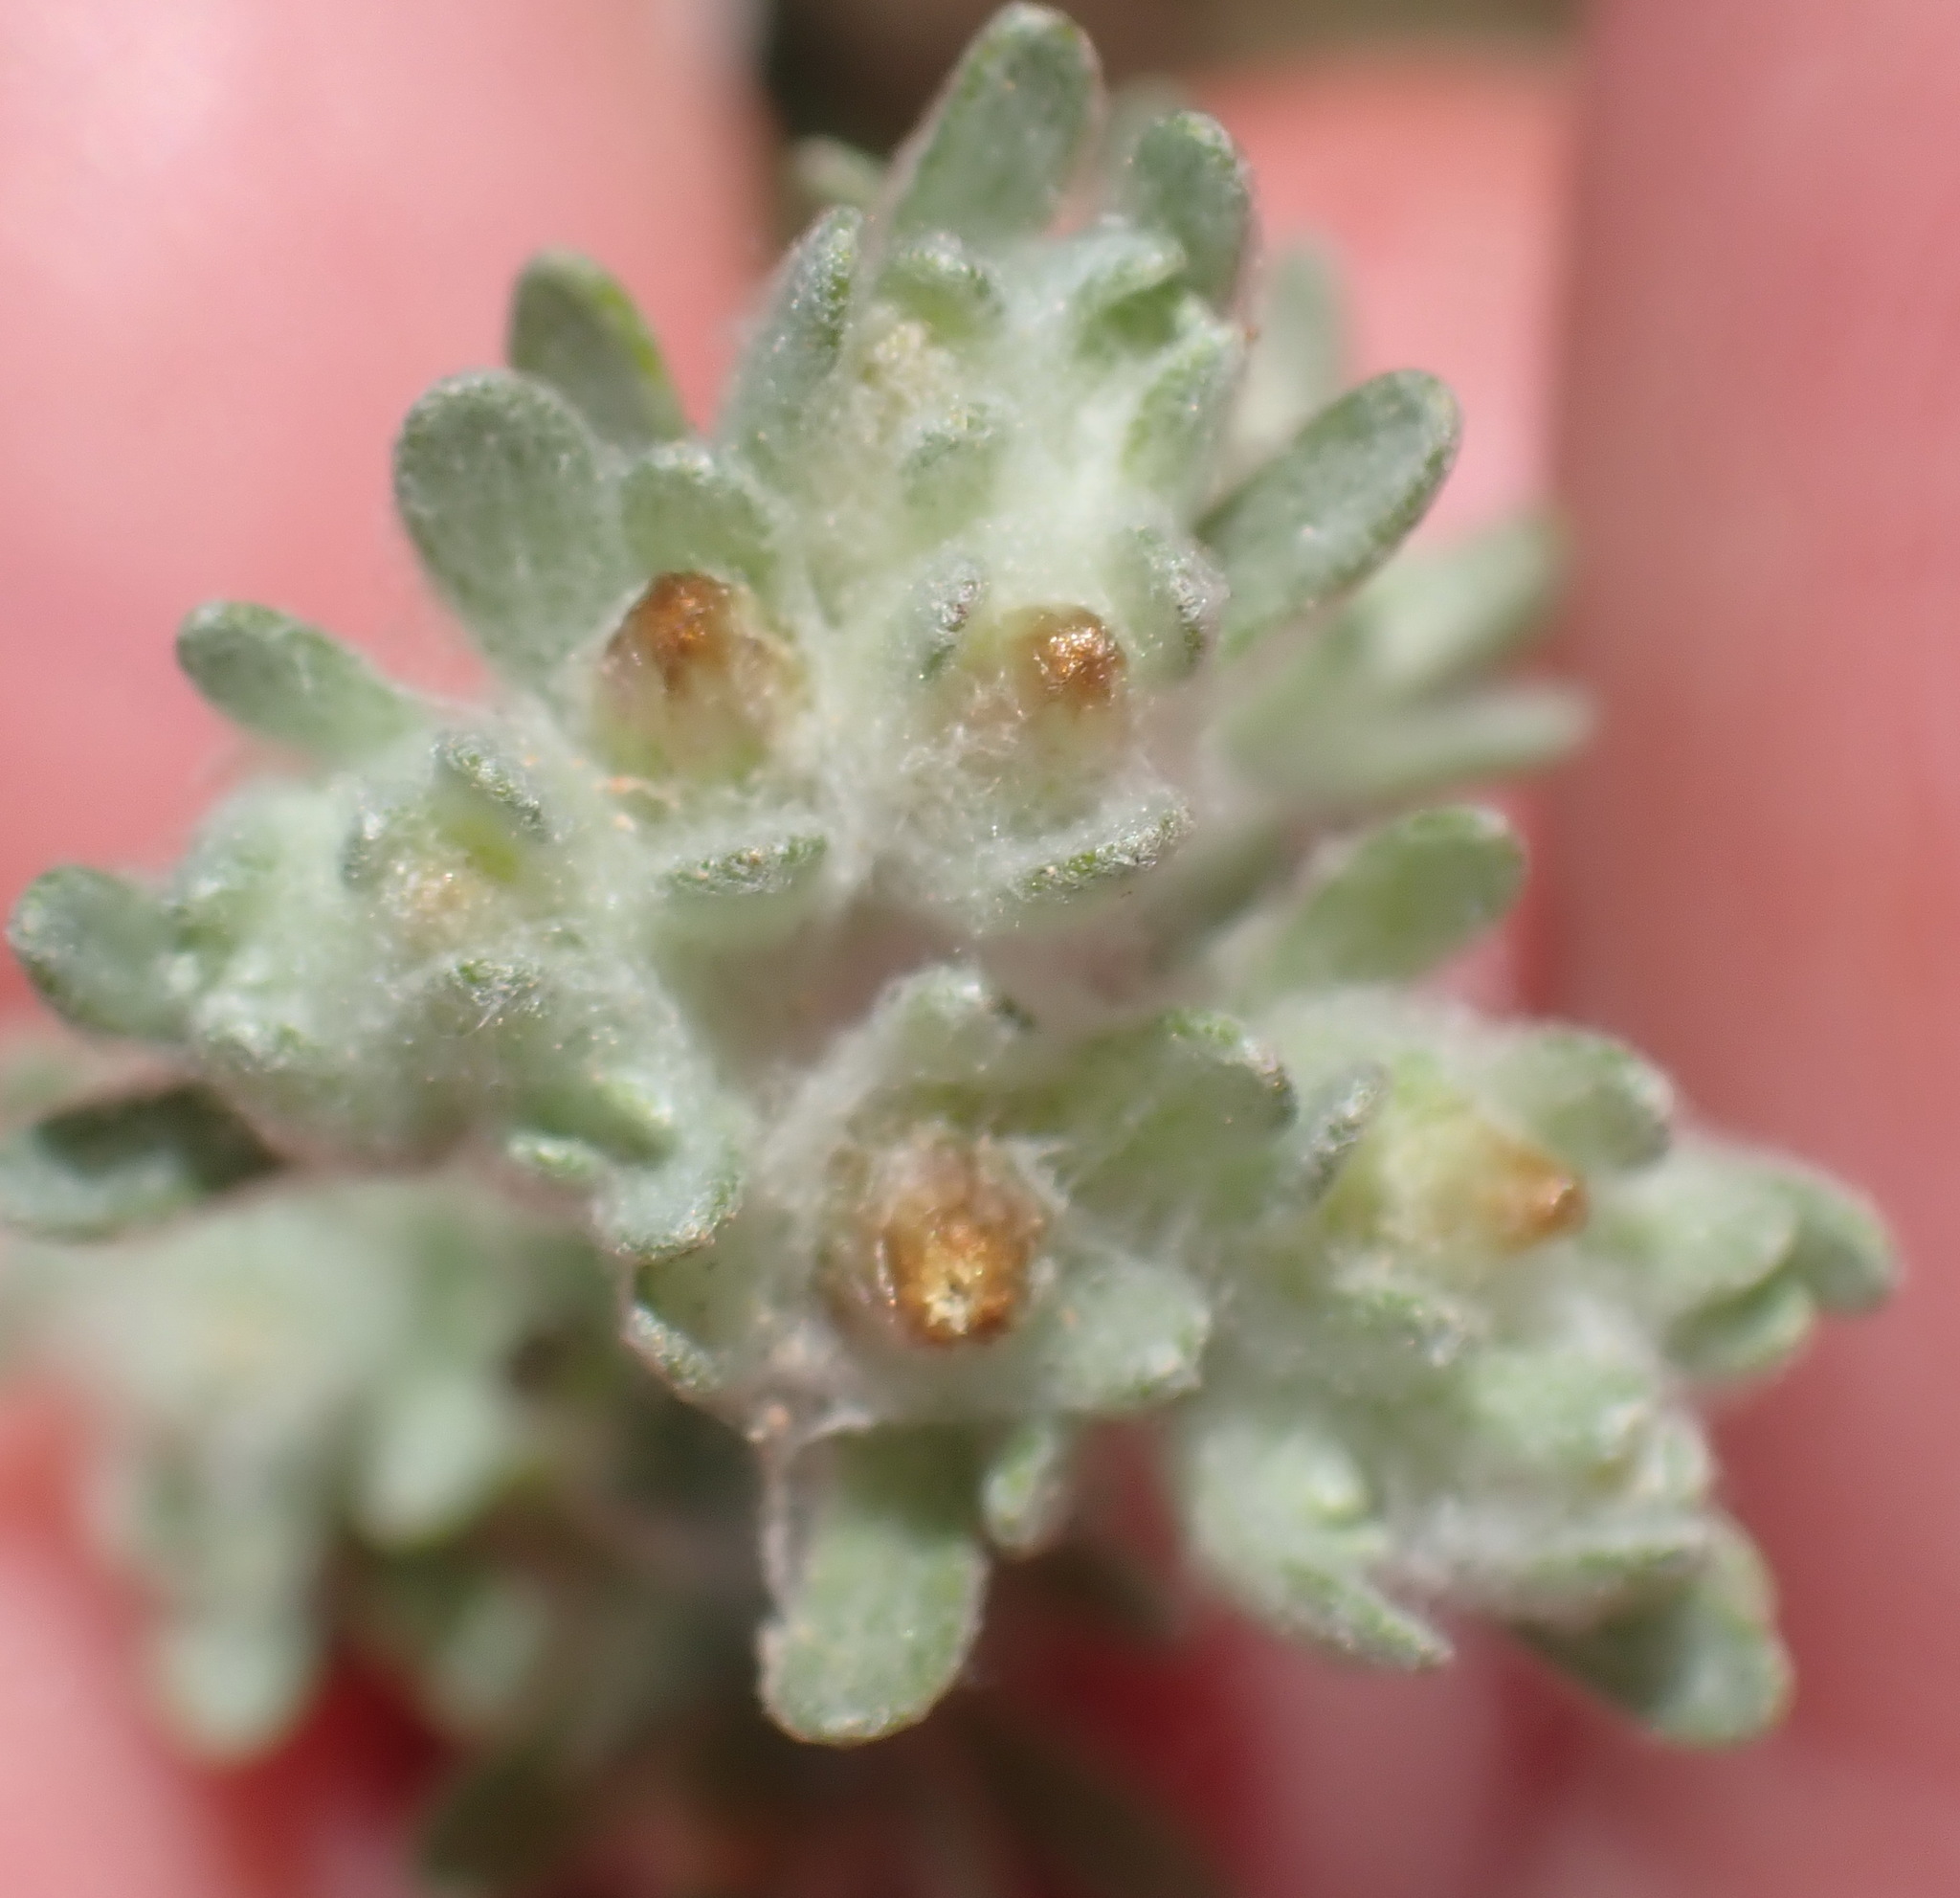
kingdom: Plantae
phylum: Tracheophyta
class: Magnoliopsida
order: Asterales
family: Asteraceae
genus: Lasiopogon
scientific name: Lasiopogon glomerulatus
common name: Green cat thorn
